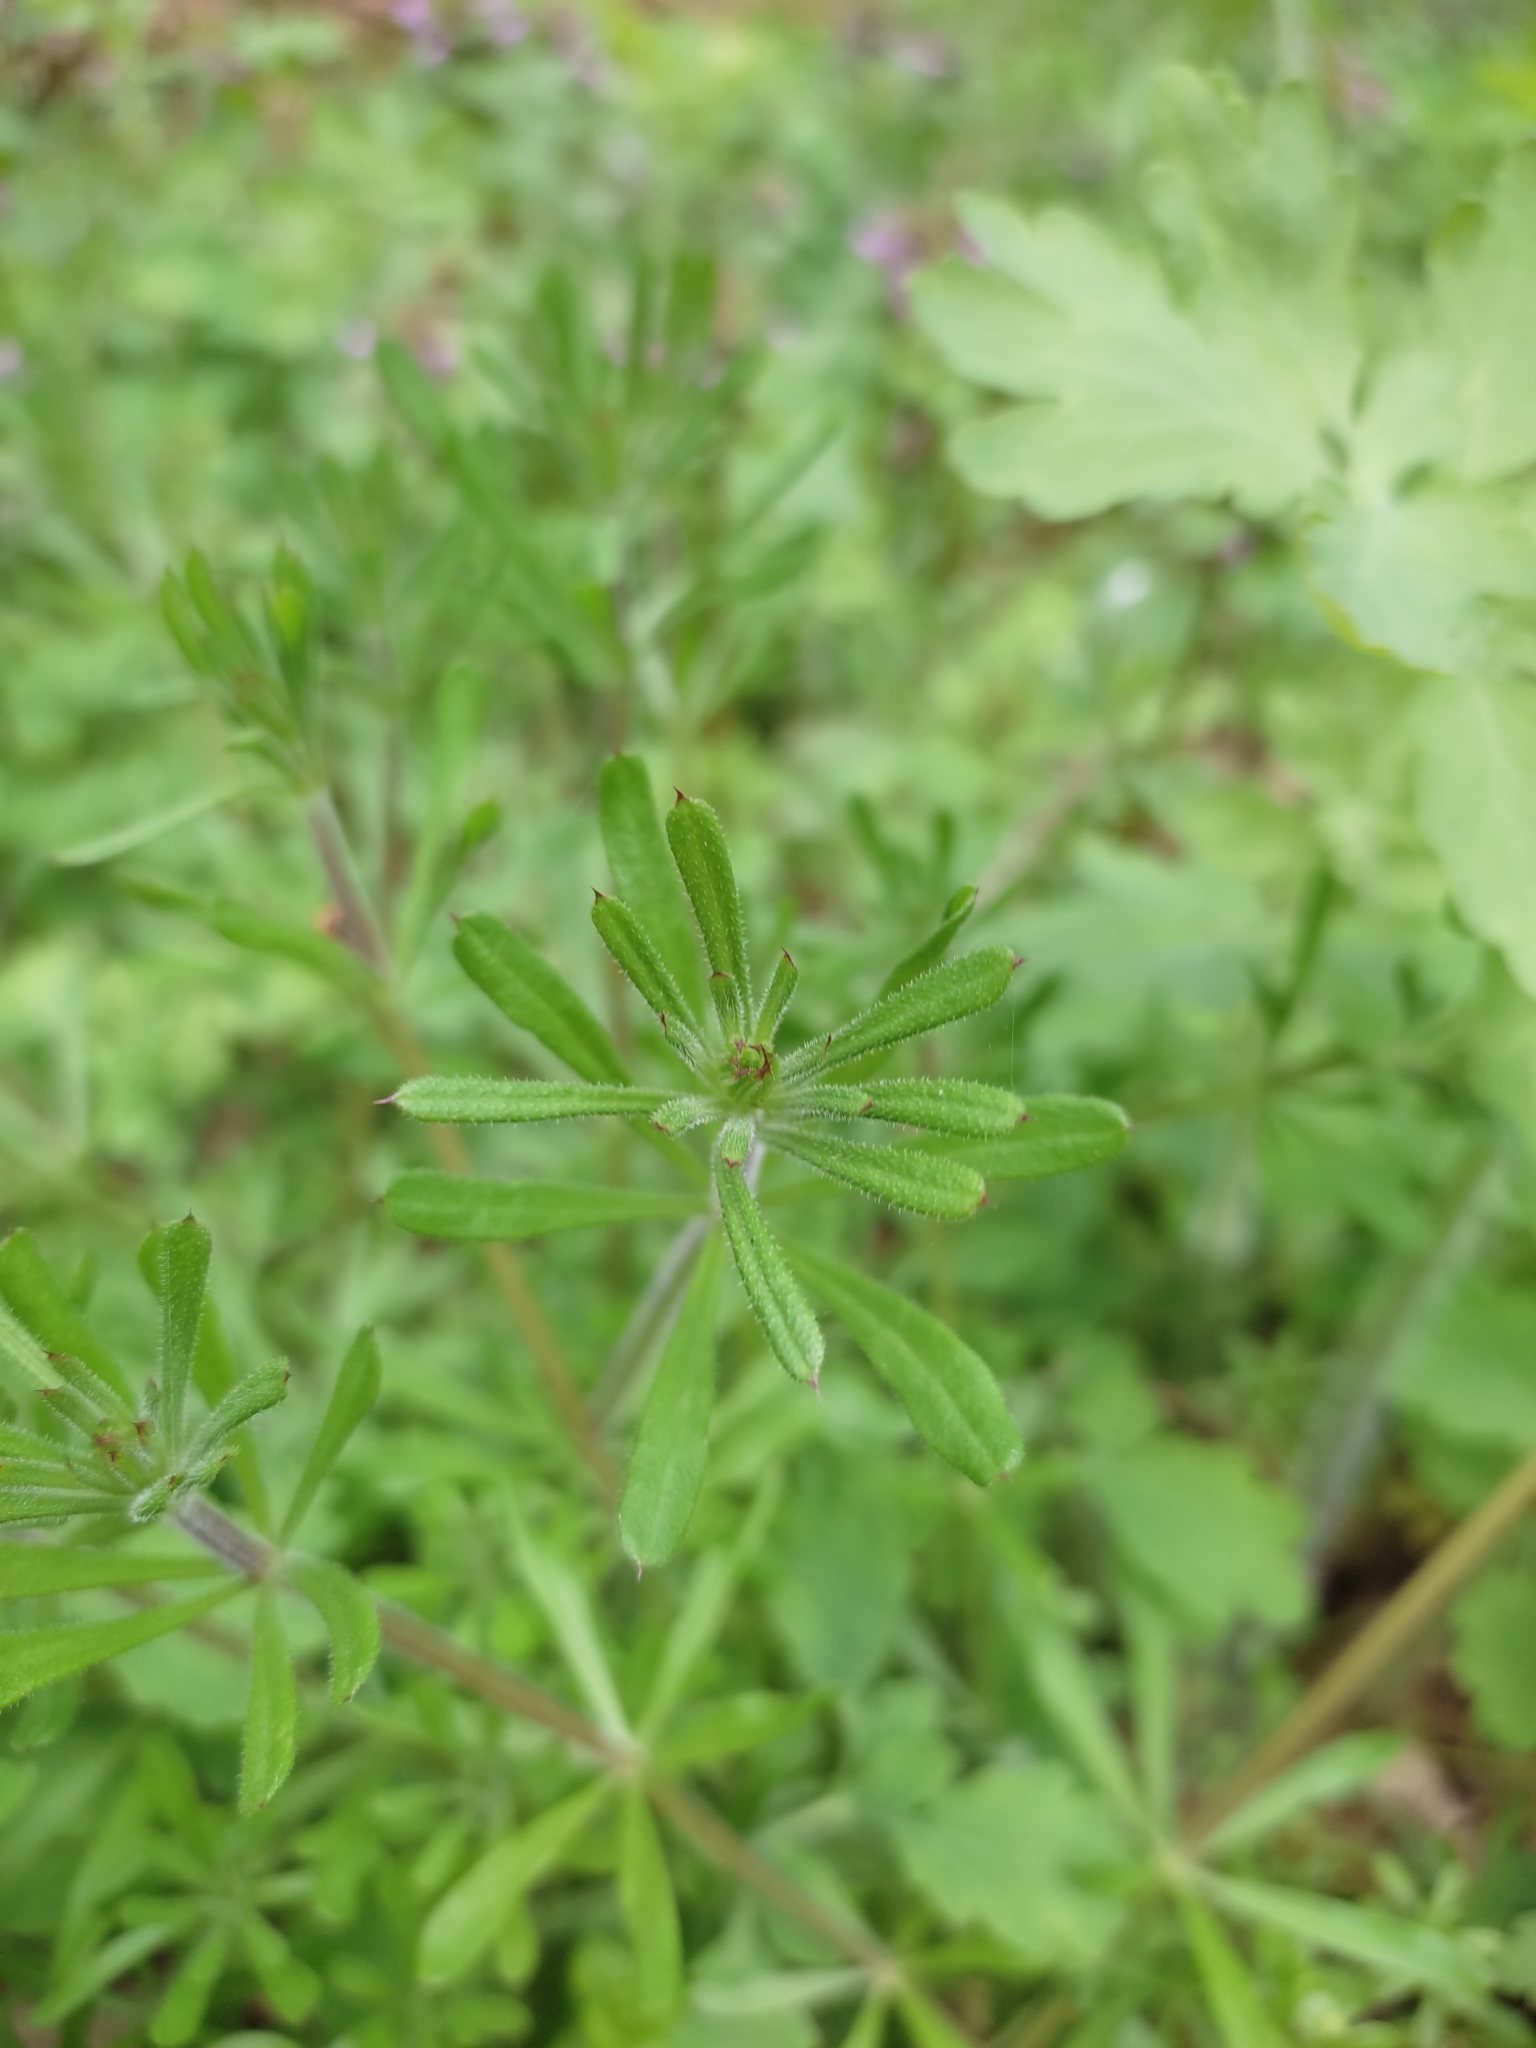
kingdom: Plantae
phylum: Tracheophyta
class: Magnoliopsida
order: Gentianales
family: Rubiaceae
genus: Galium
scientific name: Galium aparine
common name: Cleavers
